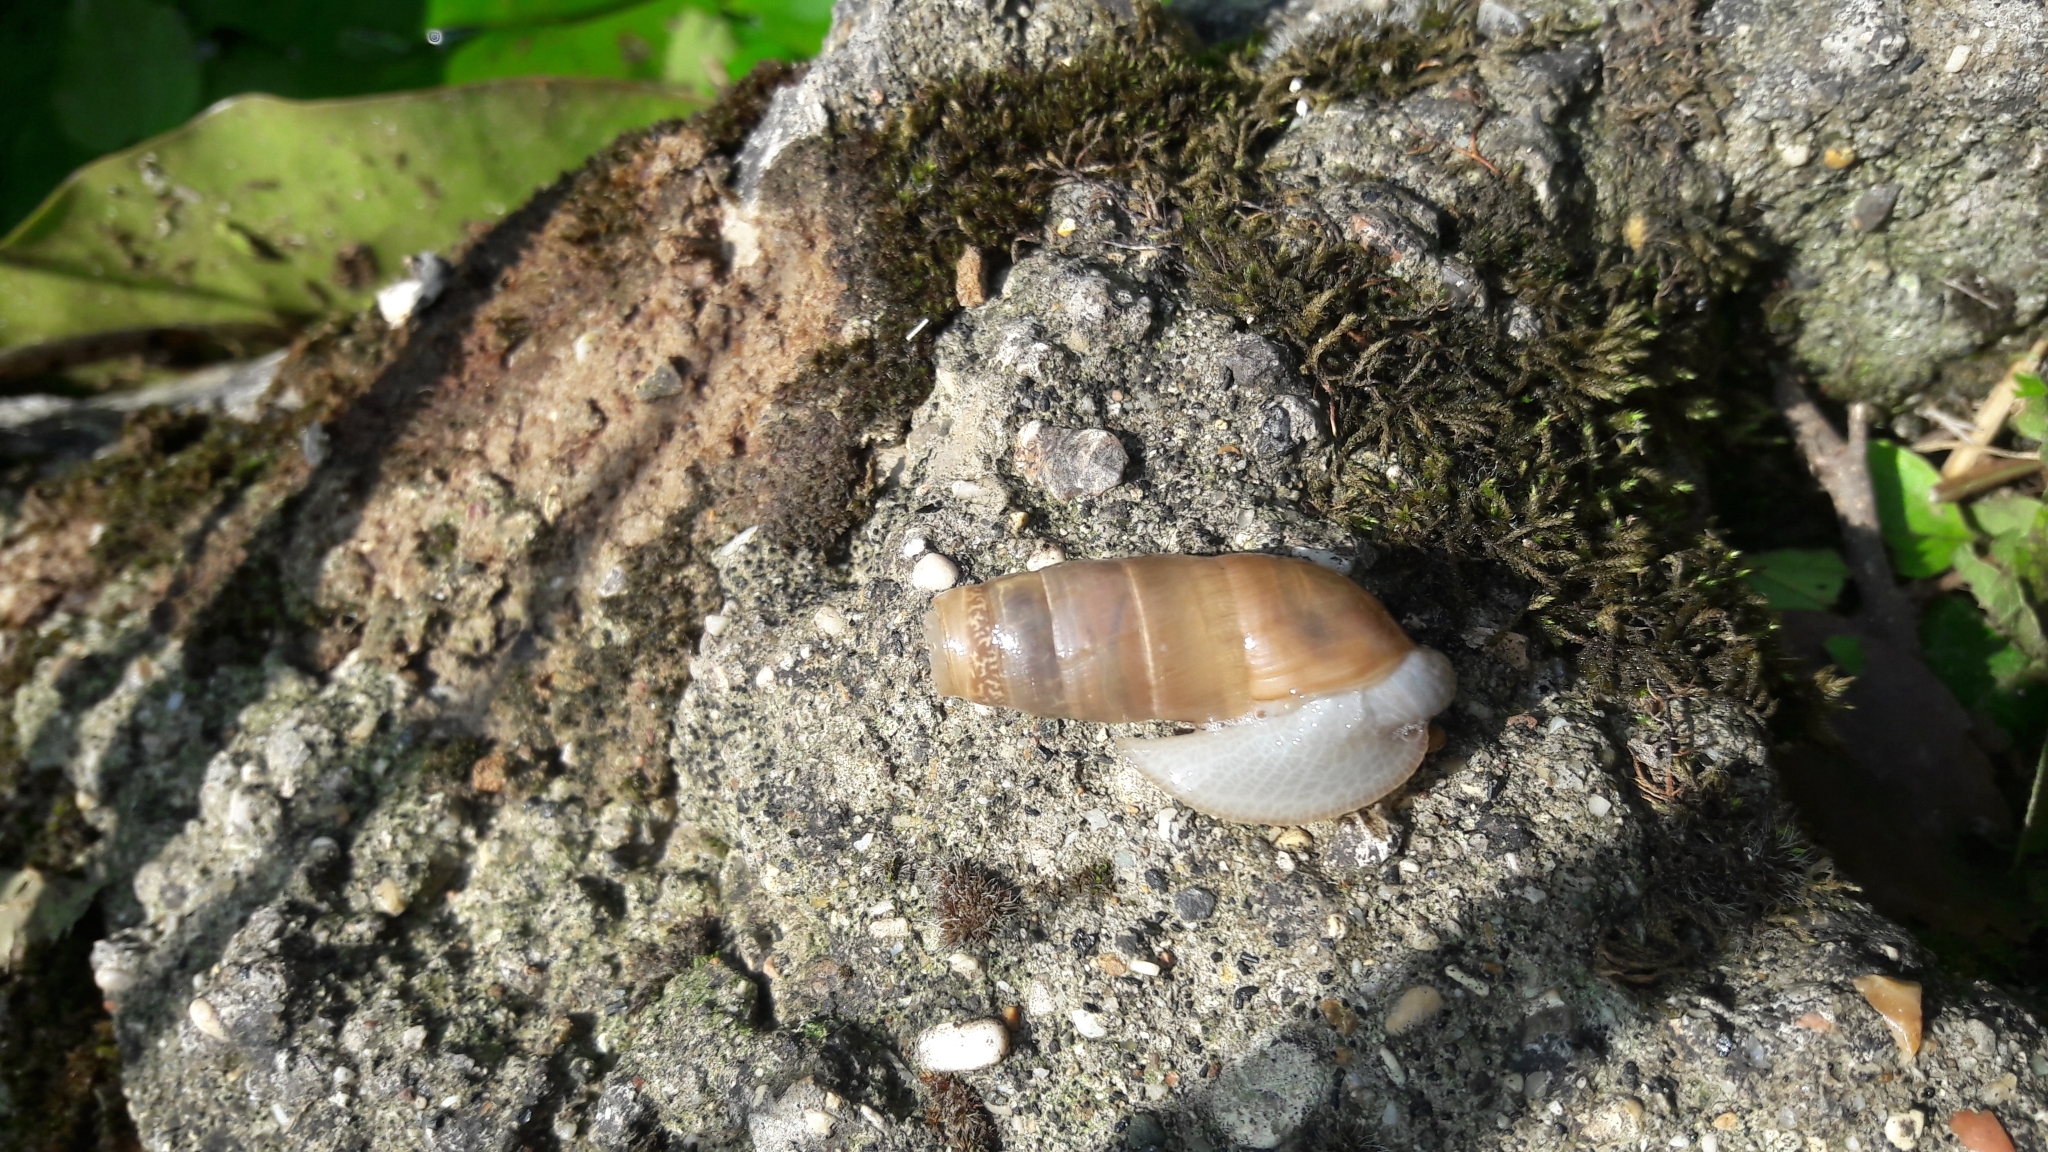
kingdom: Animalia
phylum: Mollusca
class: Gastropoda
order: Stylommatophora
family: Achatinidae
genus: Rumina
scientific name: Rumina decollata
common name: Decollate snail
